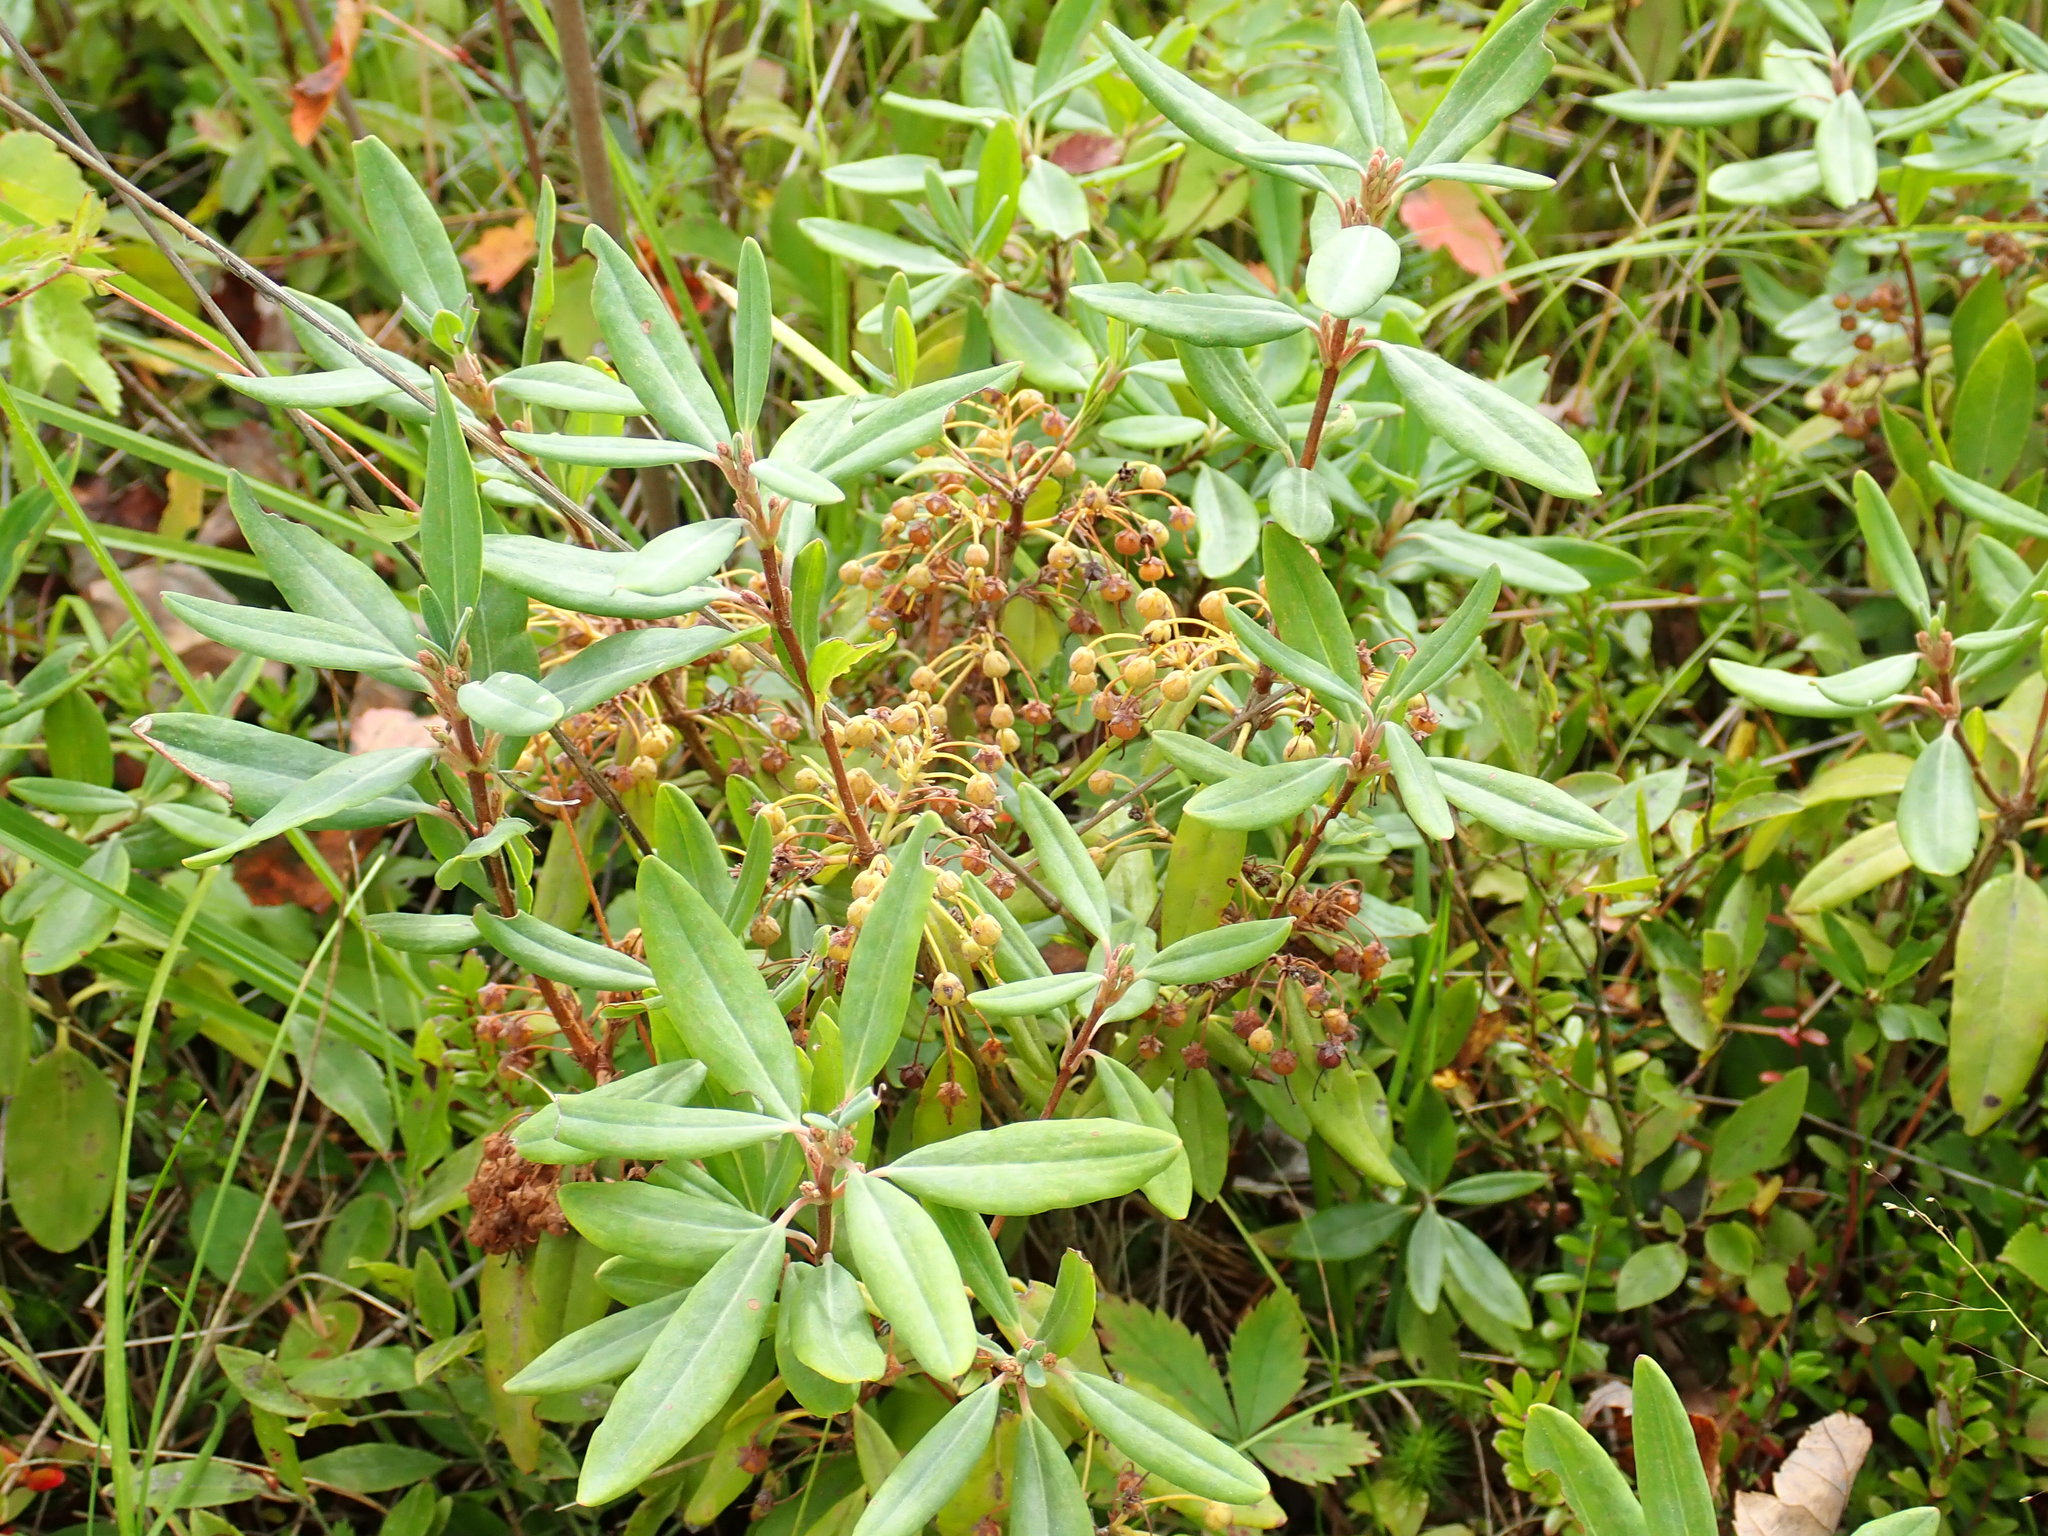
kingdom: Plantae
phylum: Tracheophyta
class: Magnoliopsida
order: Ericales
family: Ericaceae
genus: Kalmia
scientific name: Kalmia angustifolia
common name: Sheep-laurel
